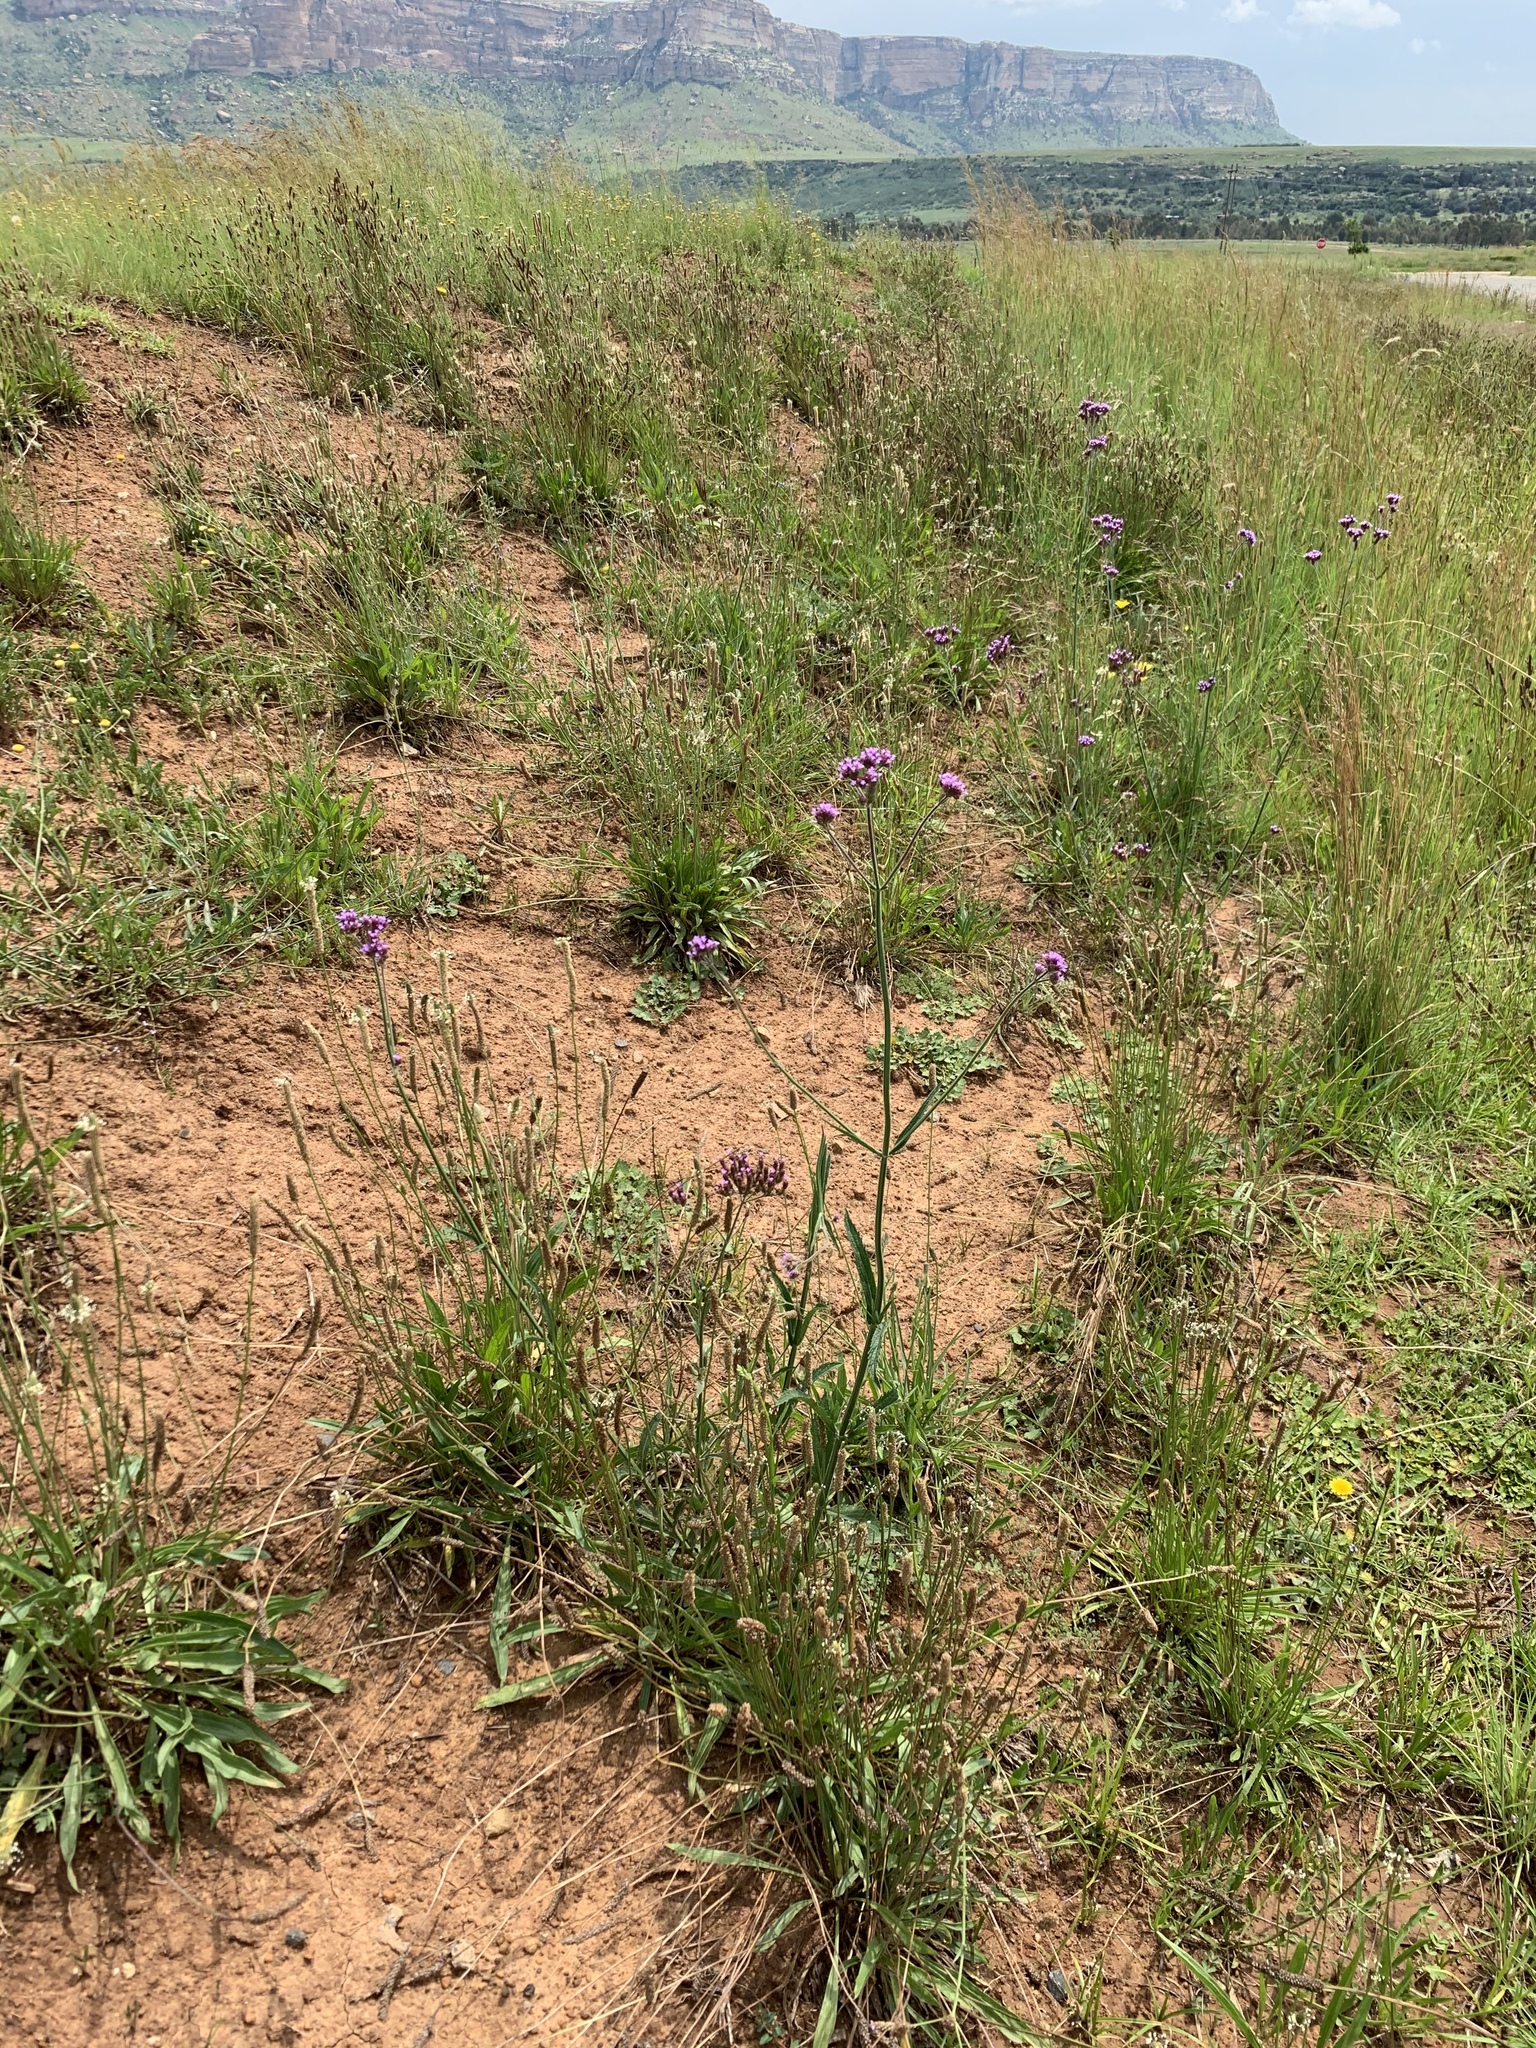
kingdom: Plantae
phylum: Tracheophyta
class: Magnoliopsida
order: Lamiales
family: Verbenaceae
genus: Verbena
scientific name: Verbena bonariensis
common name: Purpletop vervain
